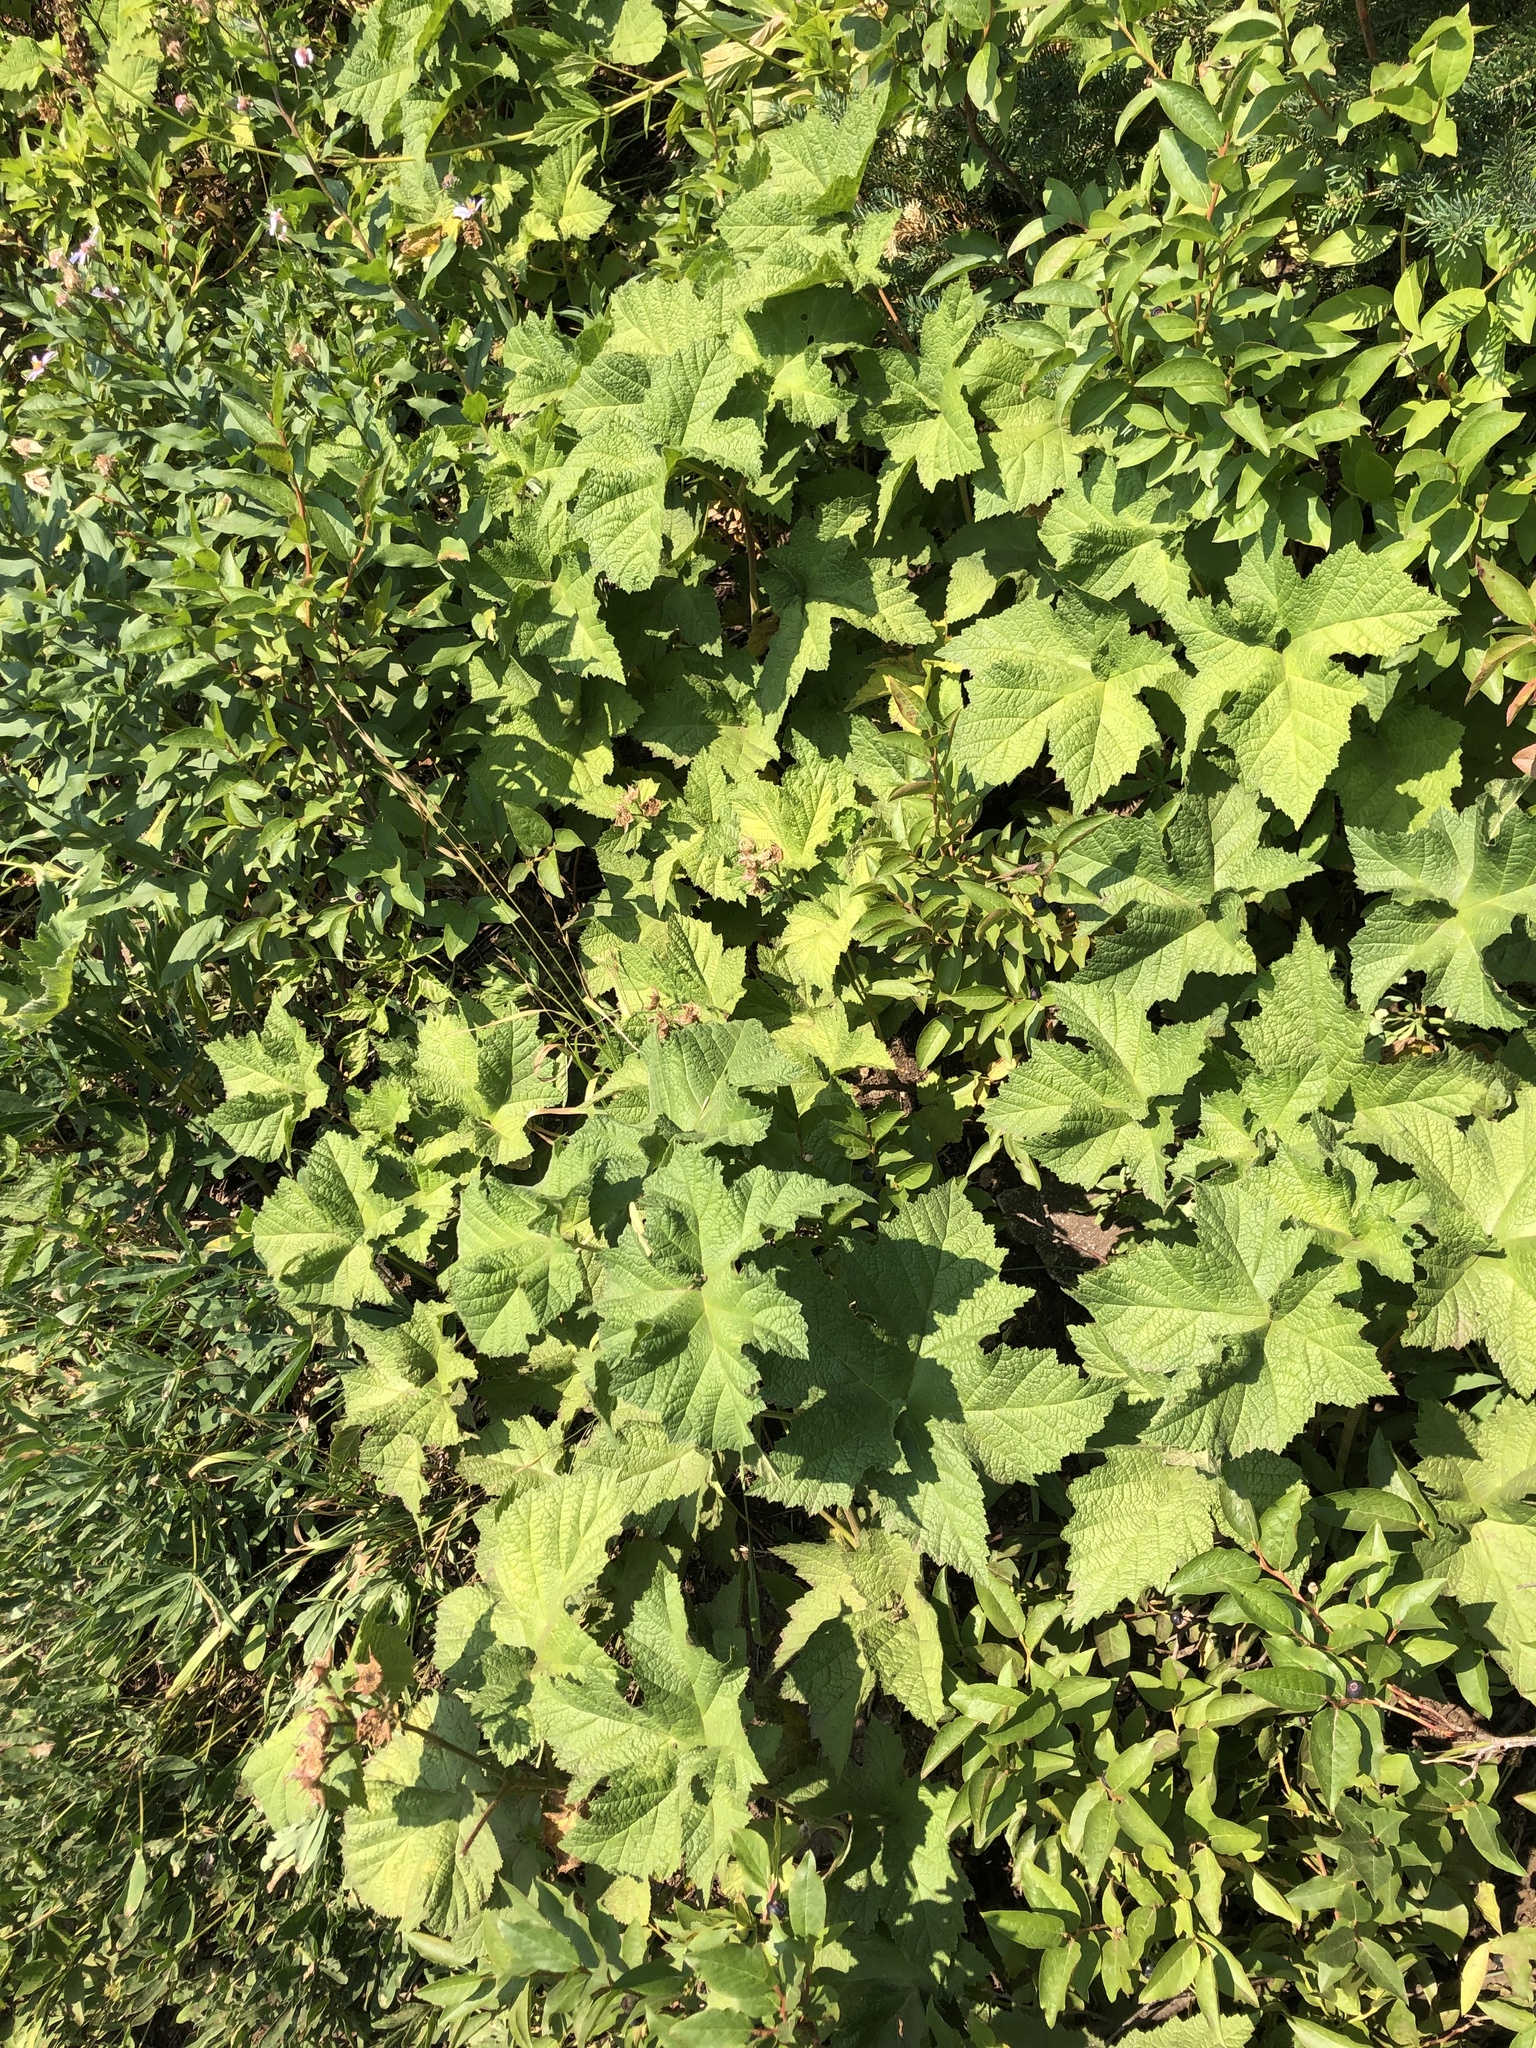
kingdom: Plantae
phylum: Tracheophyta
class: Magnoliopsida
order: Rosales
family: Rosaceae
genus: Rubus
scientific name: Rubus parviflorus
